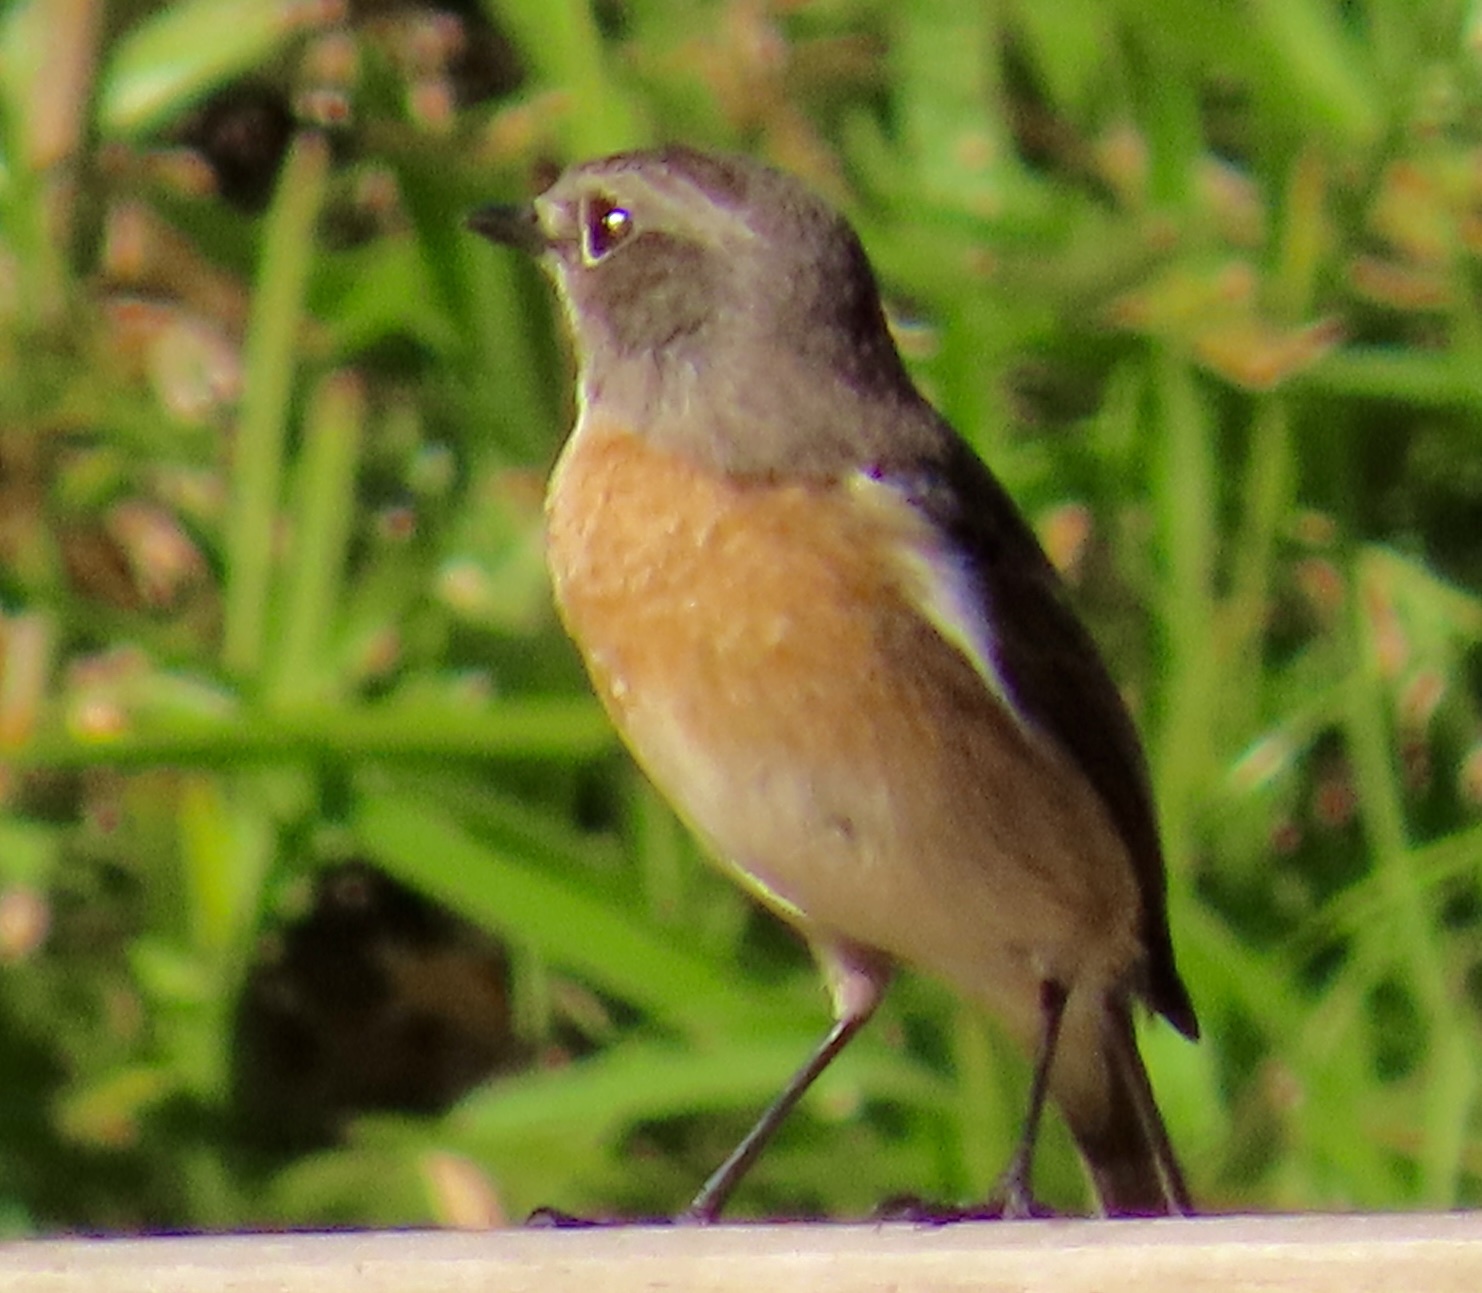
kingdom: Animalia
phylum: Chordata
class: Aves
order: Passeriformes
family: Muscicapidae
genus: Saxicola
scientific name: Saxicola torquatus
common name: African stonechat
